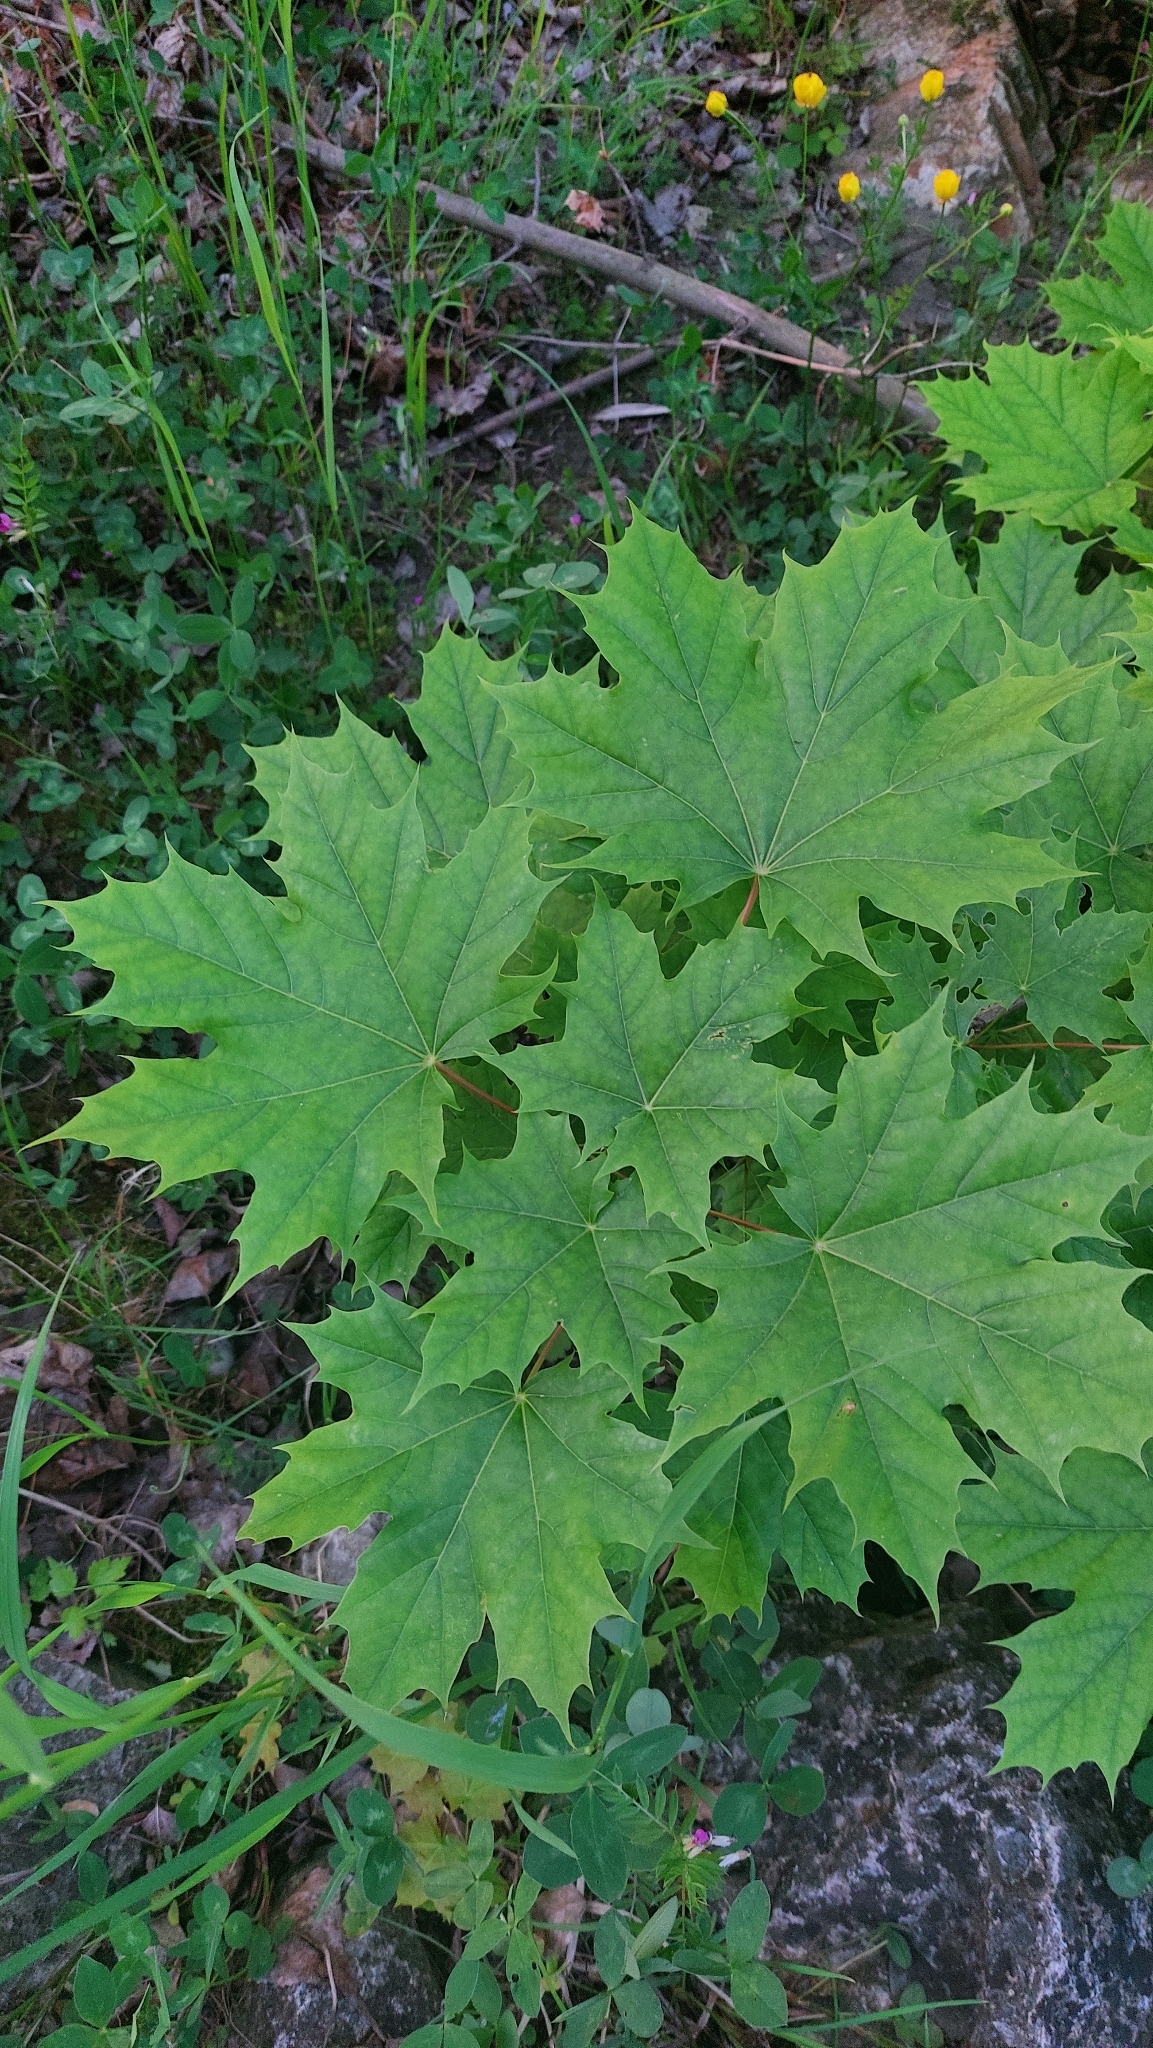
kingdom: Plantae
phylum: Tracheophyta
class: Magnoliopsida
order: Sapindales
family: Sapindaceae
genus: Acer
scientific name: Acer platanoides
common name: Norway maple
